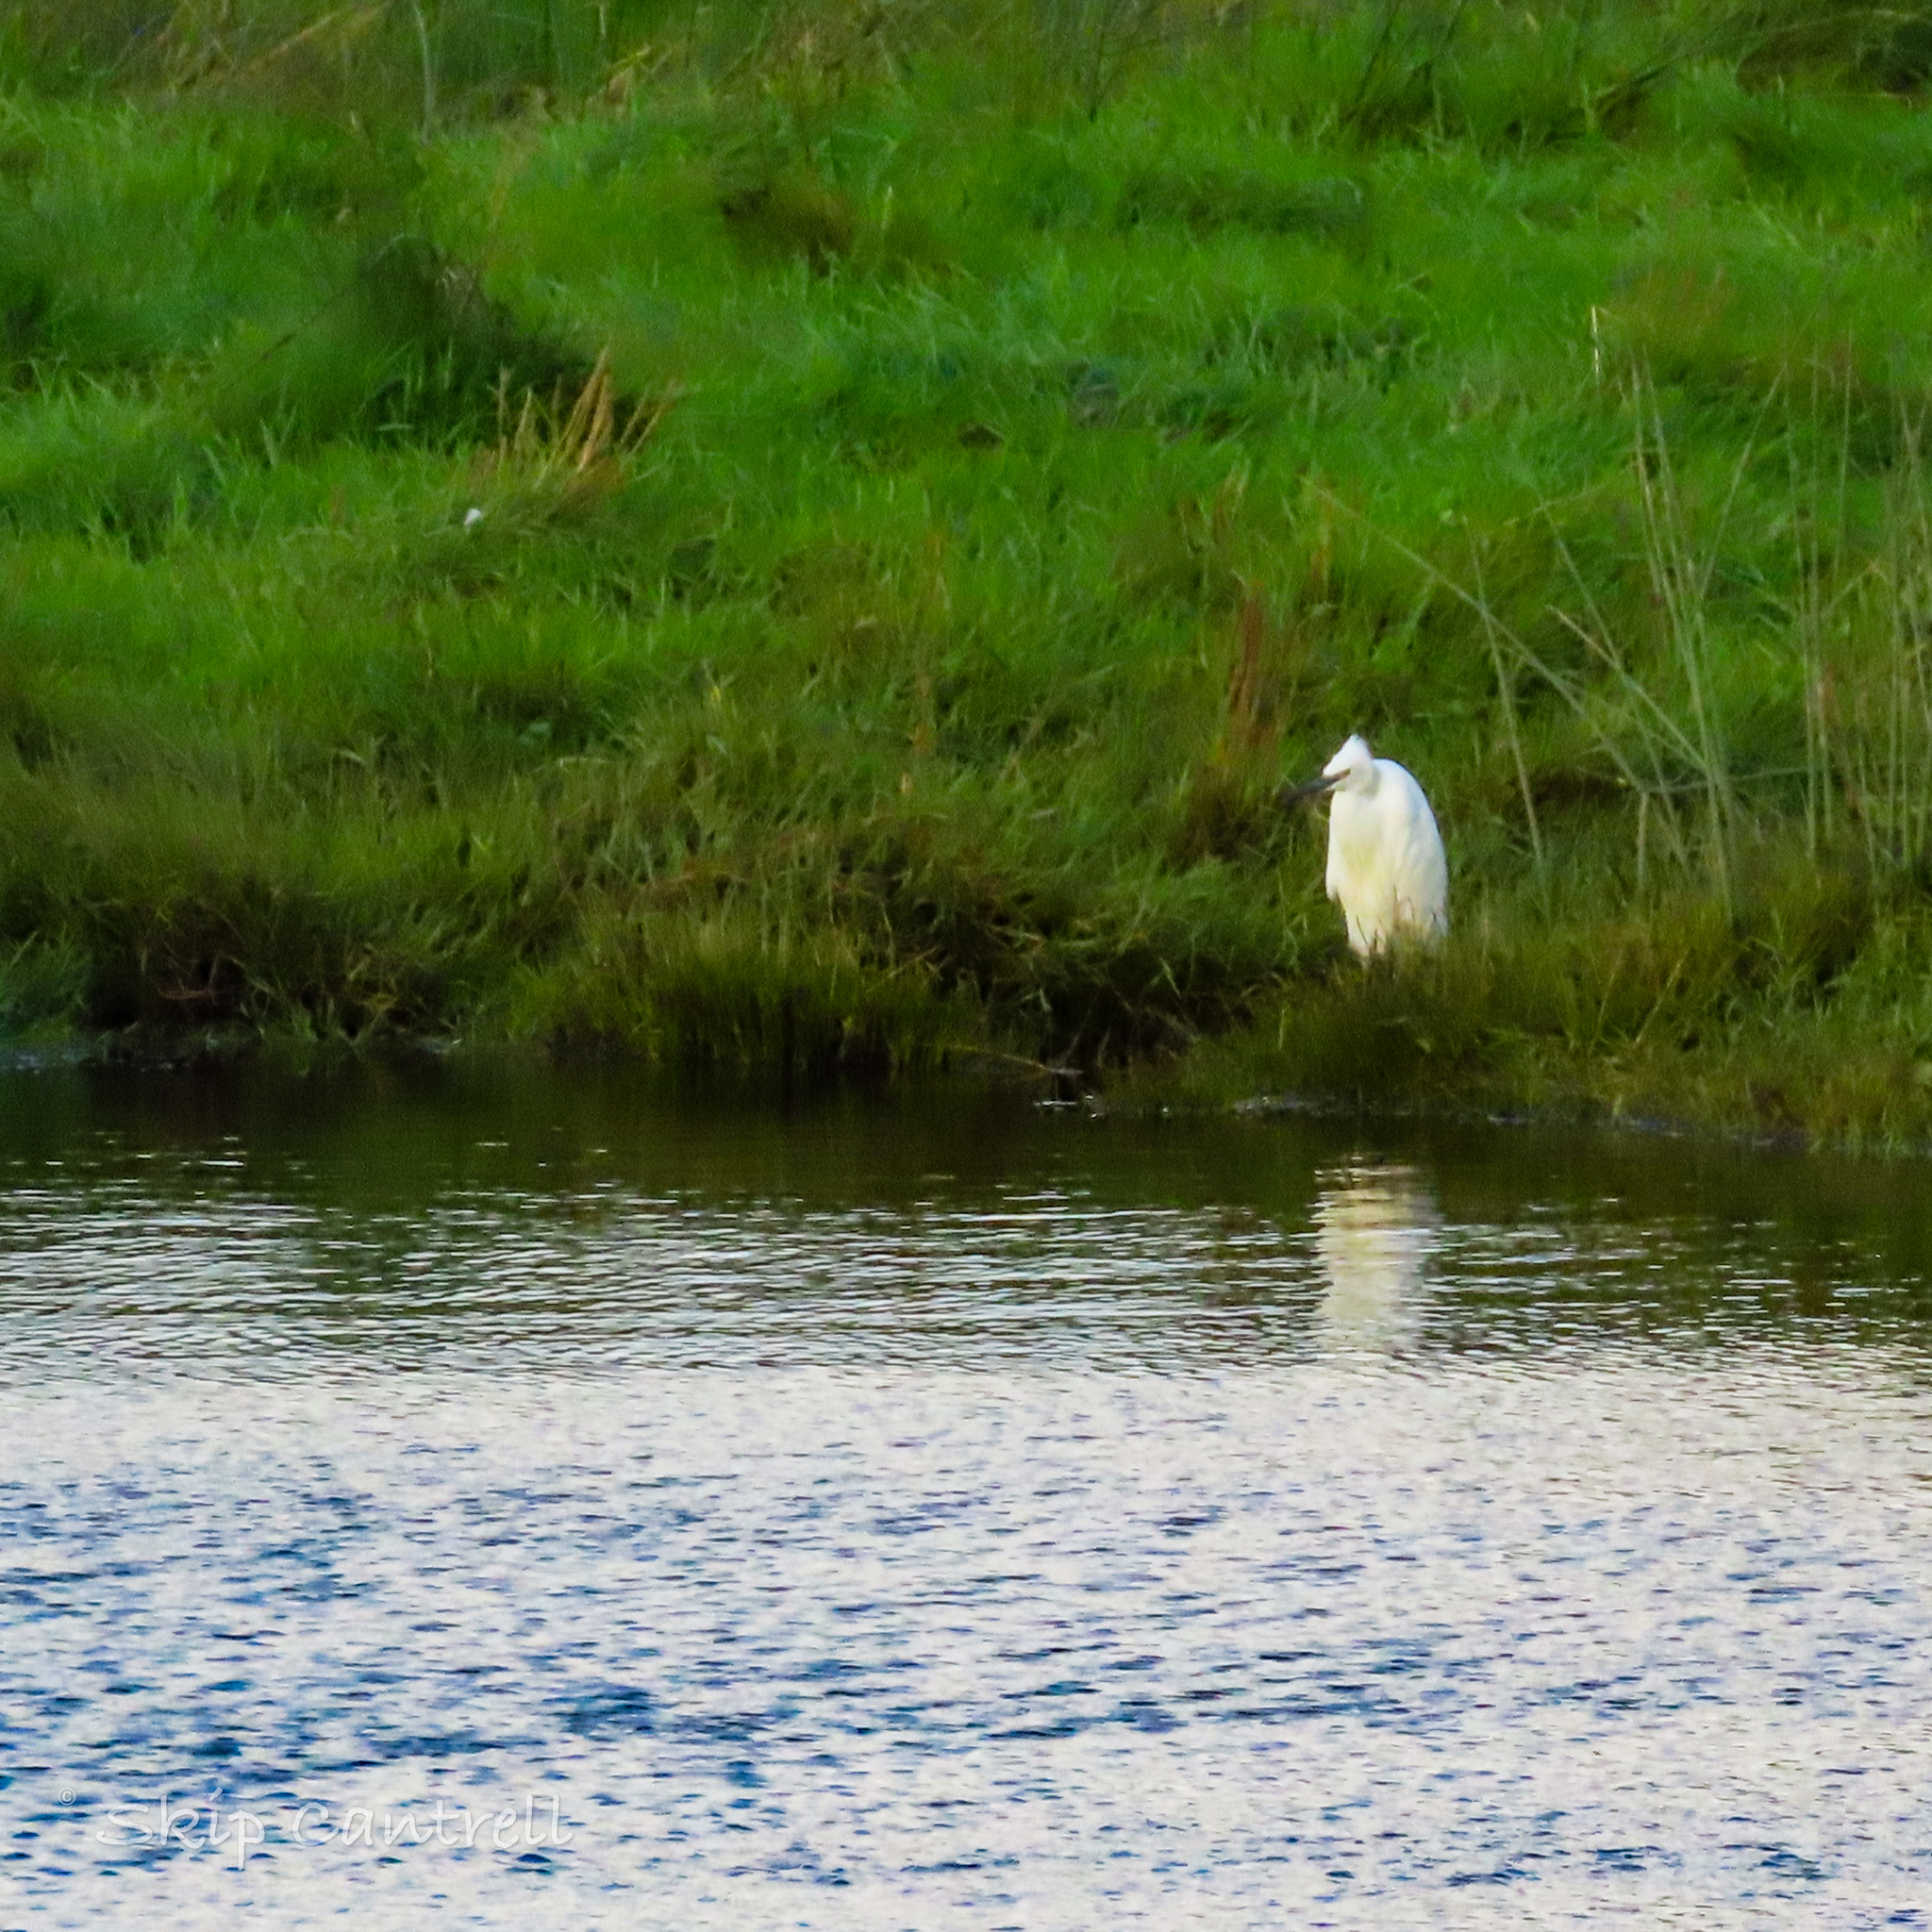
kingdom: Animalia
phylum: Chordata
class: Aves
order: Pelecaniformes
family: Ardeidae
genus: Egretta
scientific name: Egretta garzetta
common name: Little egret
